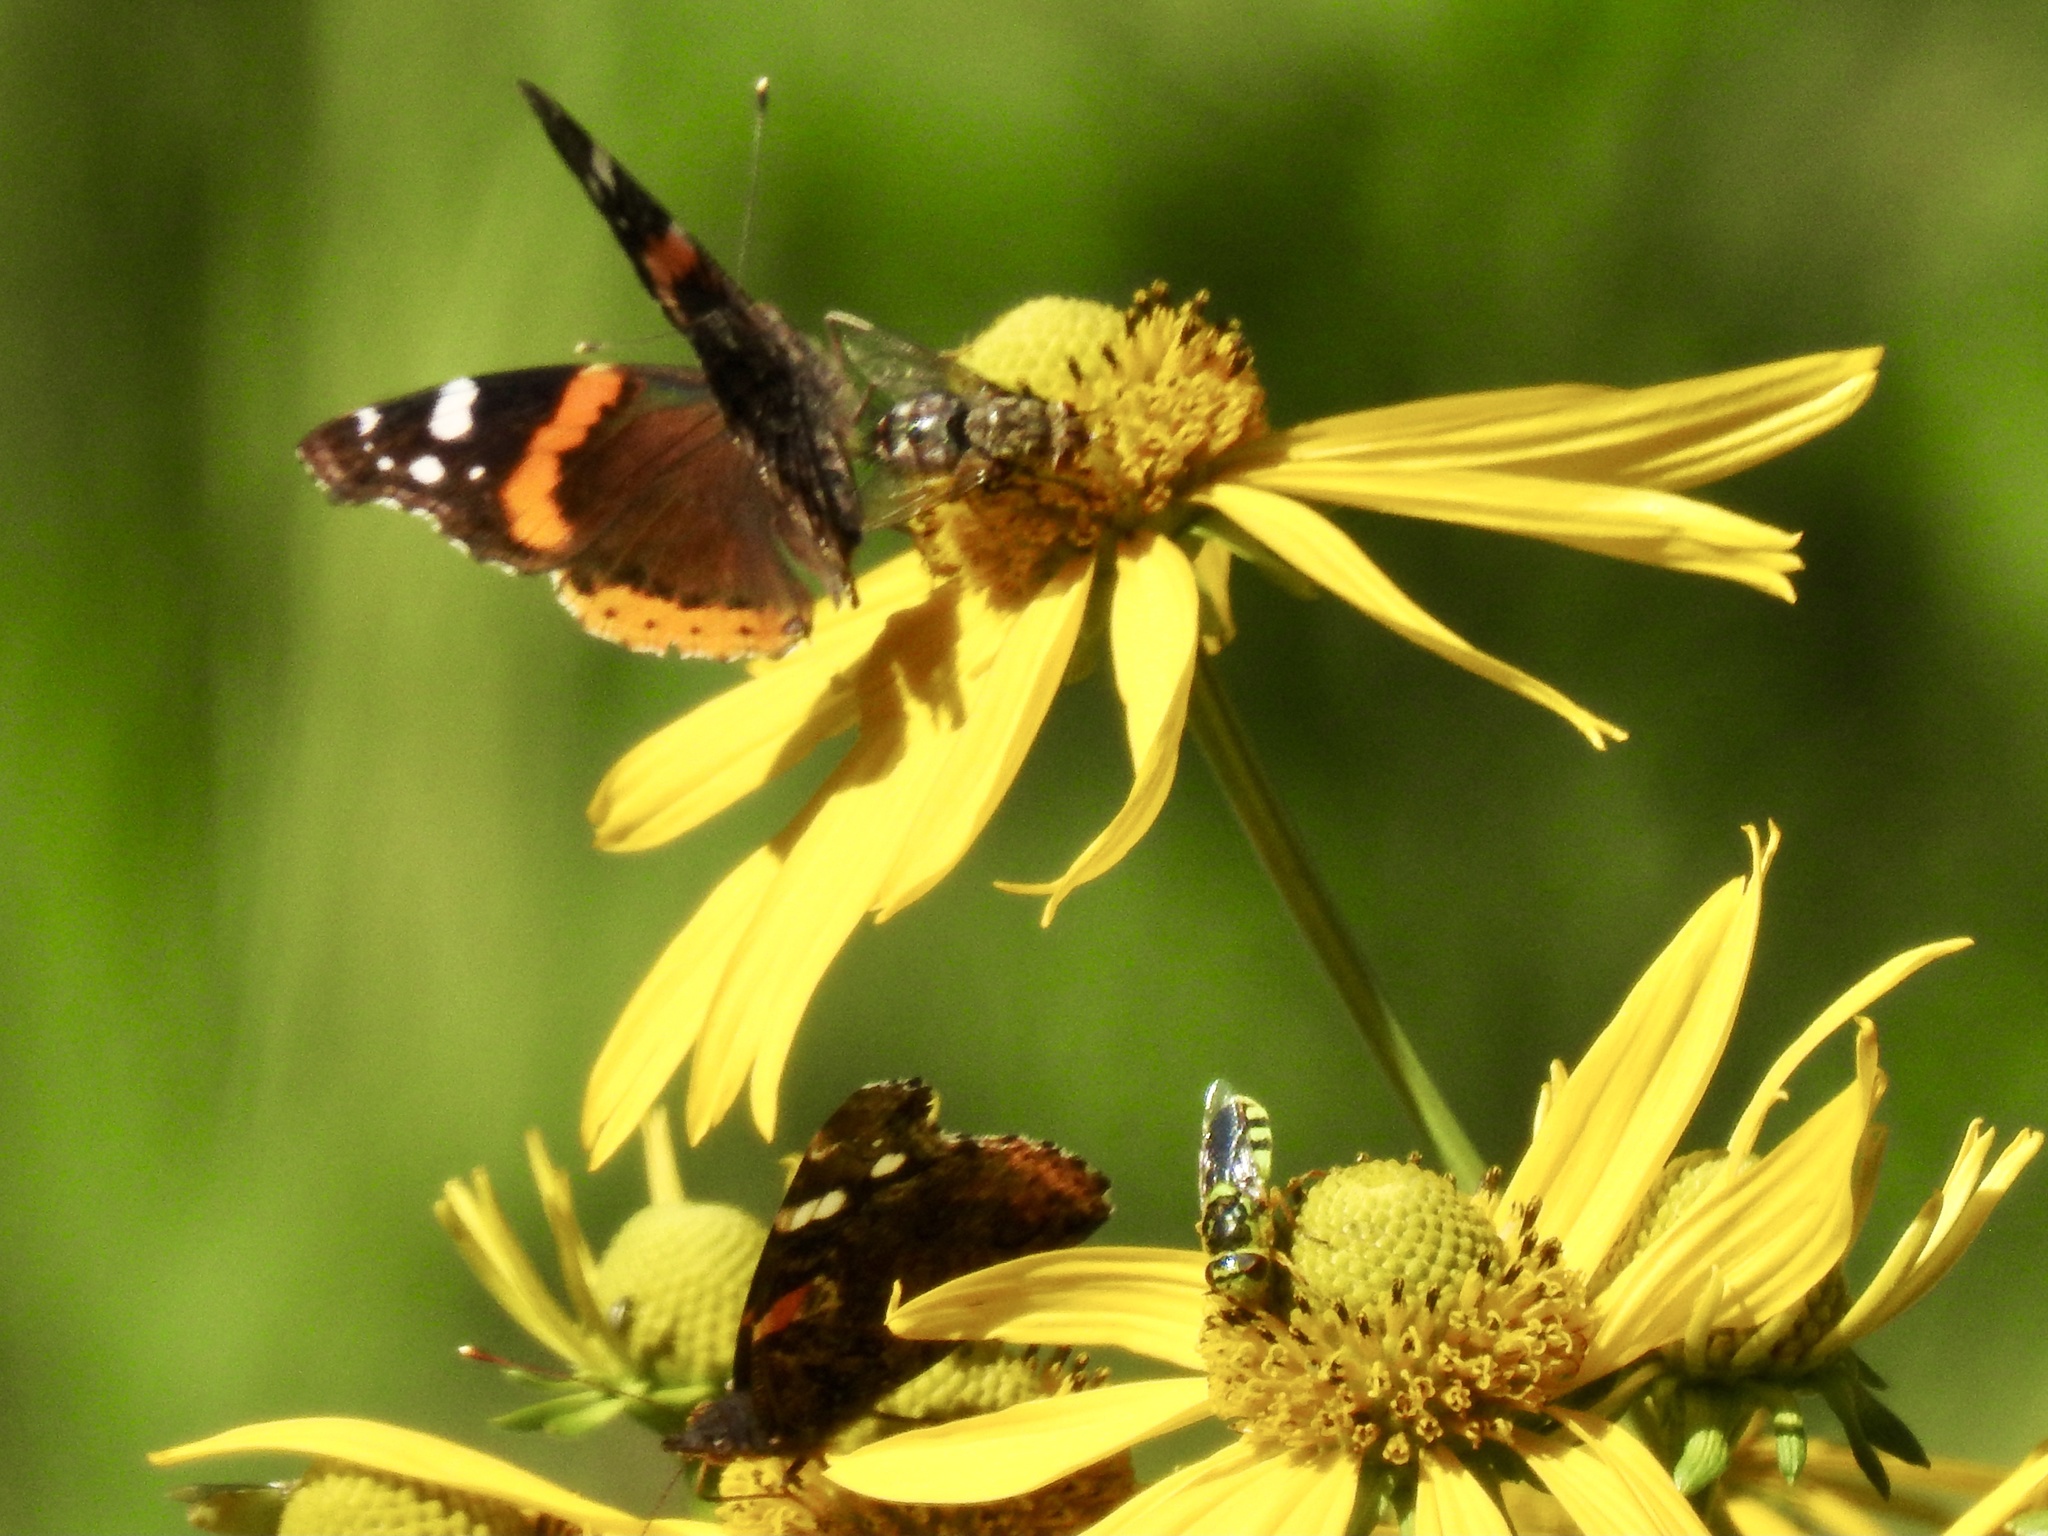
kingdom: Animalia
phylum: Arthropoda
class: Insecta
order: Lepidoptera
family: Nymphalidae
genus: Vanessa
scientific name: Vanessa atalanta
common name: Red admiral
